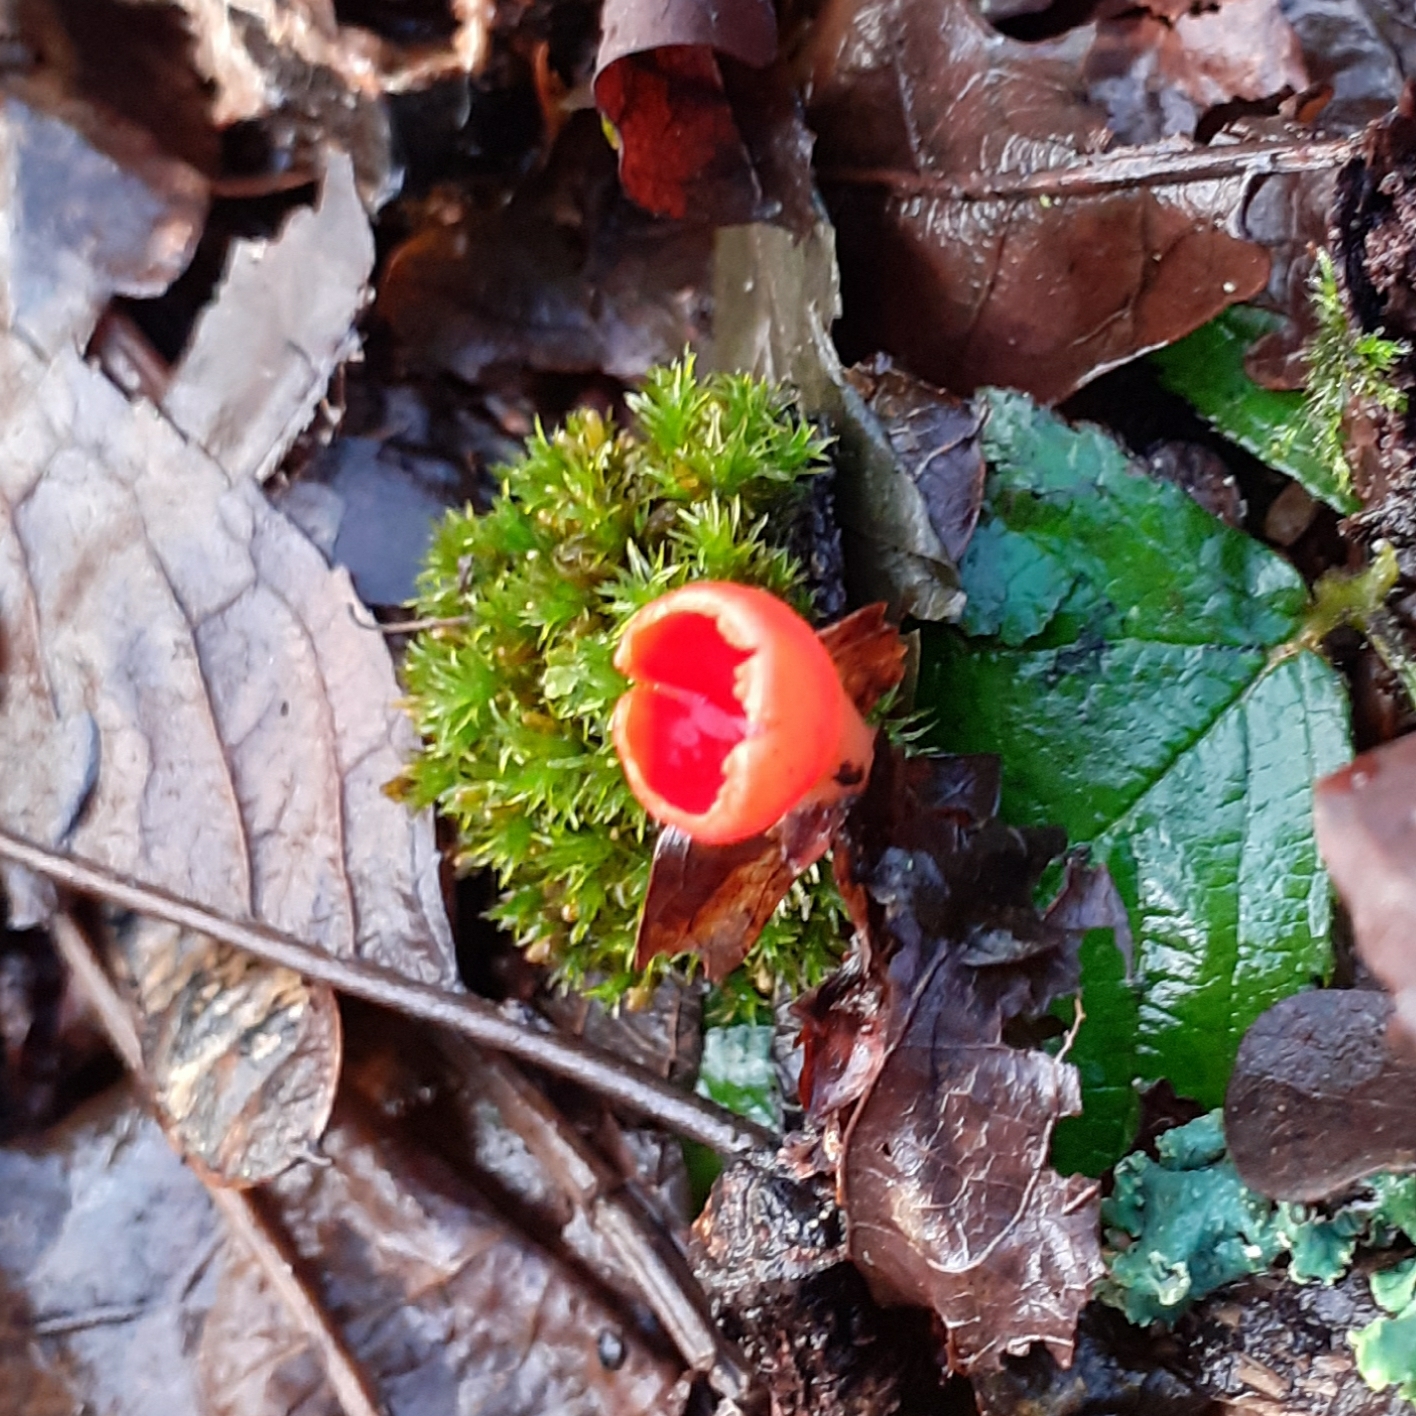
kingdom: Fungi
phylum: Ascomycota
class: Pezizomycetes
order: Pezizales
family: Sarcoscyphaceae
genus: Sarcoscypha
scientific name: Sarcoscypha
